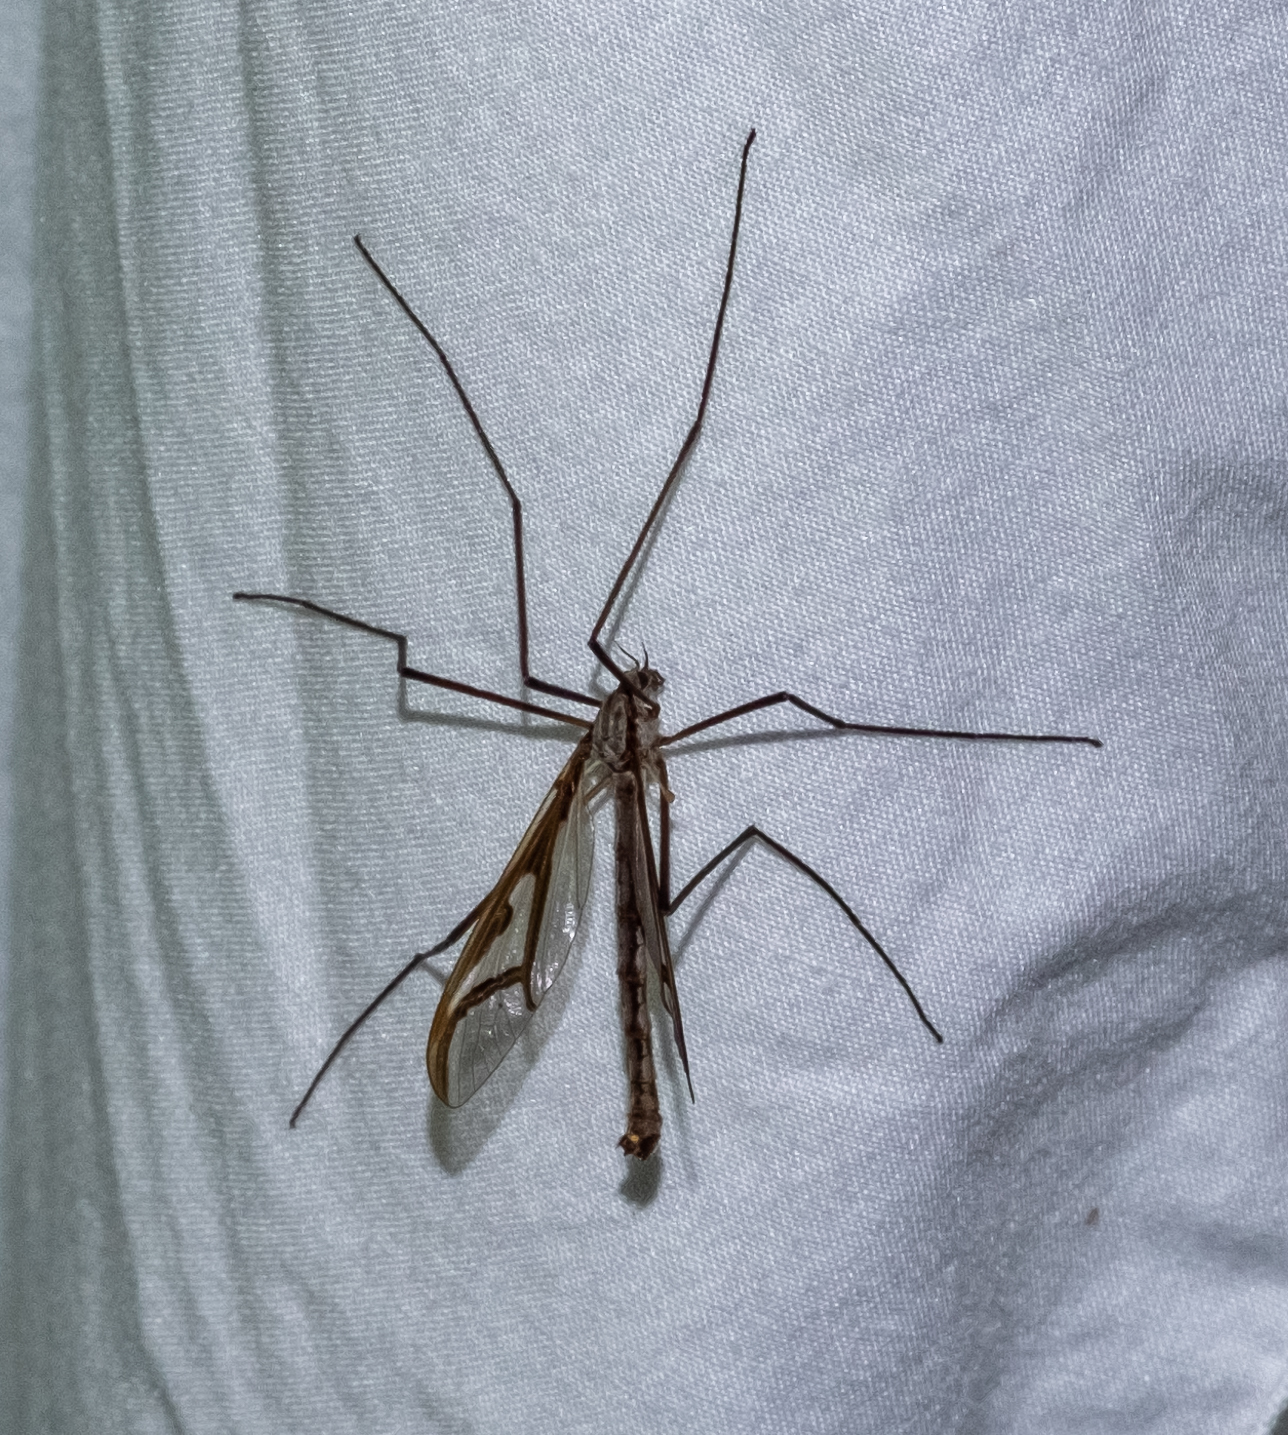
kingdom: Animalia
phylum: Arthropoda
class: Insecta
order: Diptera
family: Pediciidae
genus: Pedicia
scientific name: Pedicia rivosa
